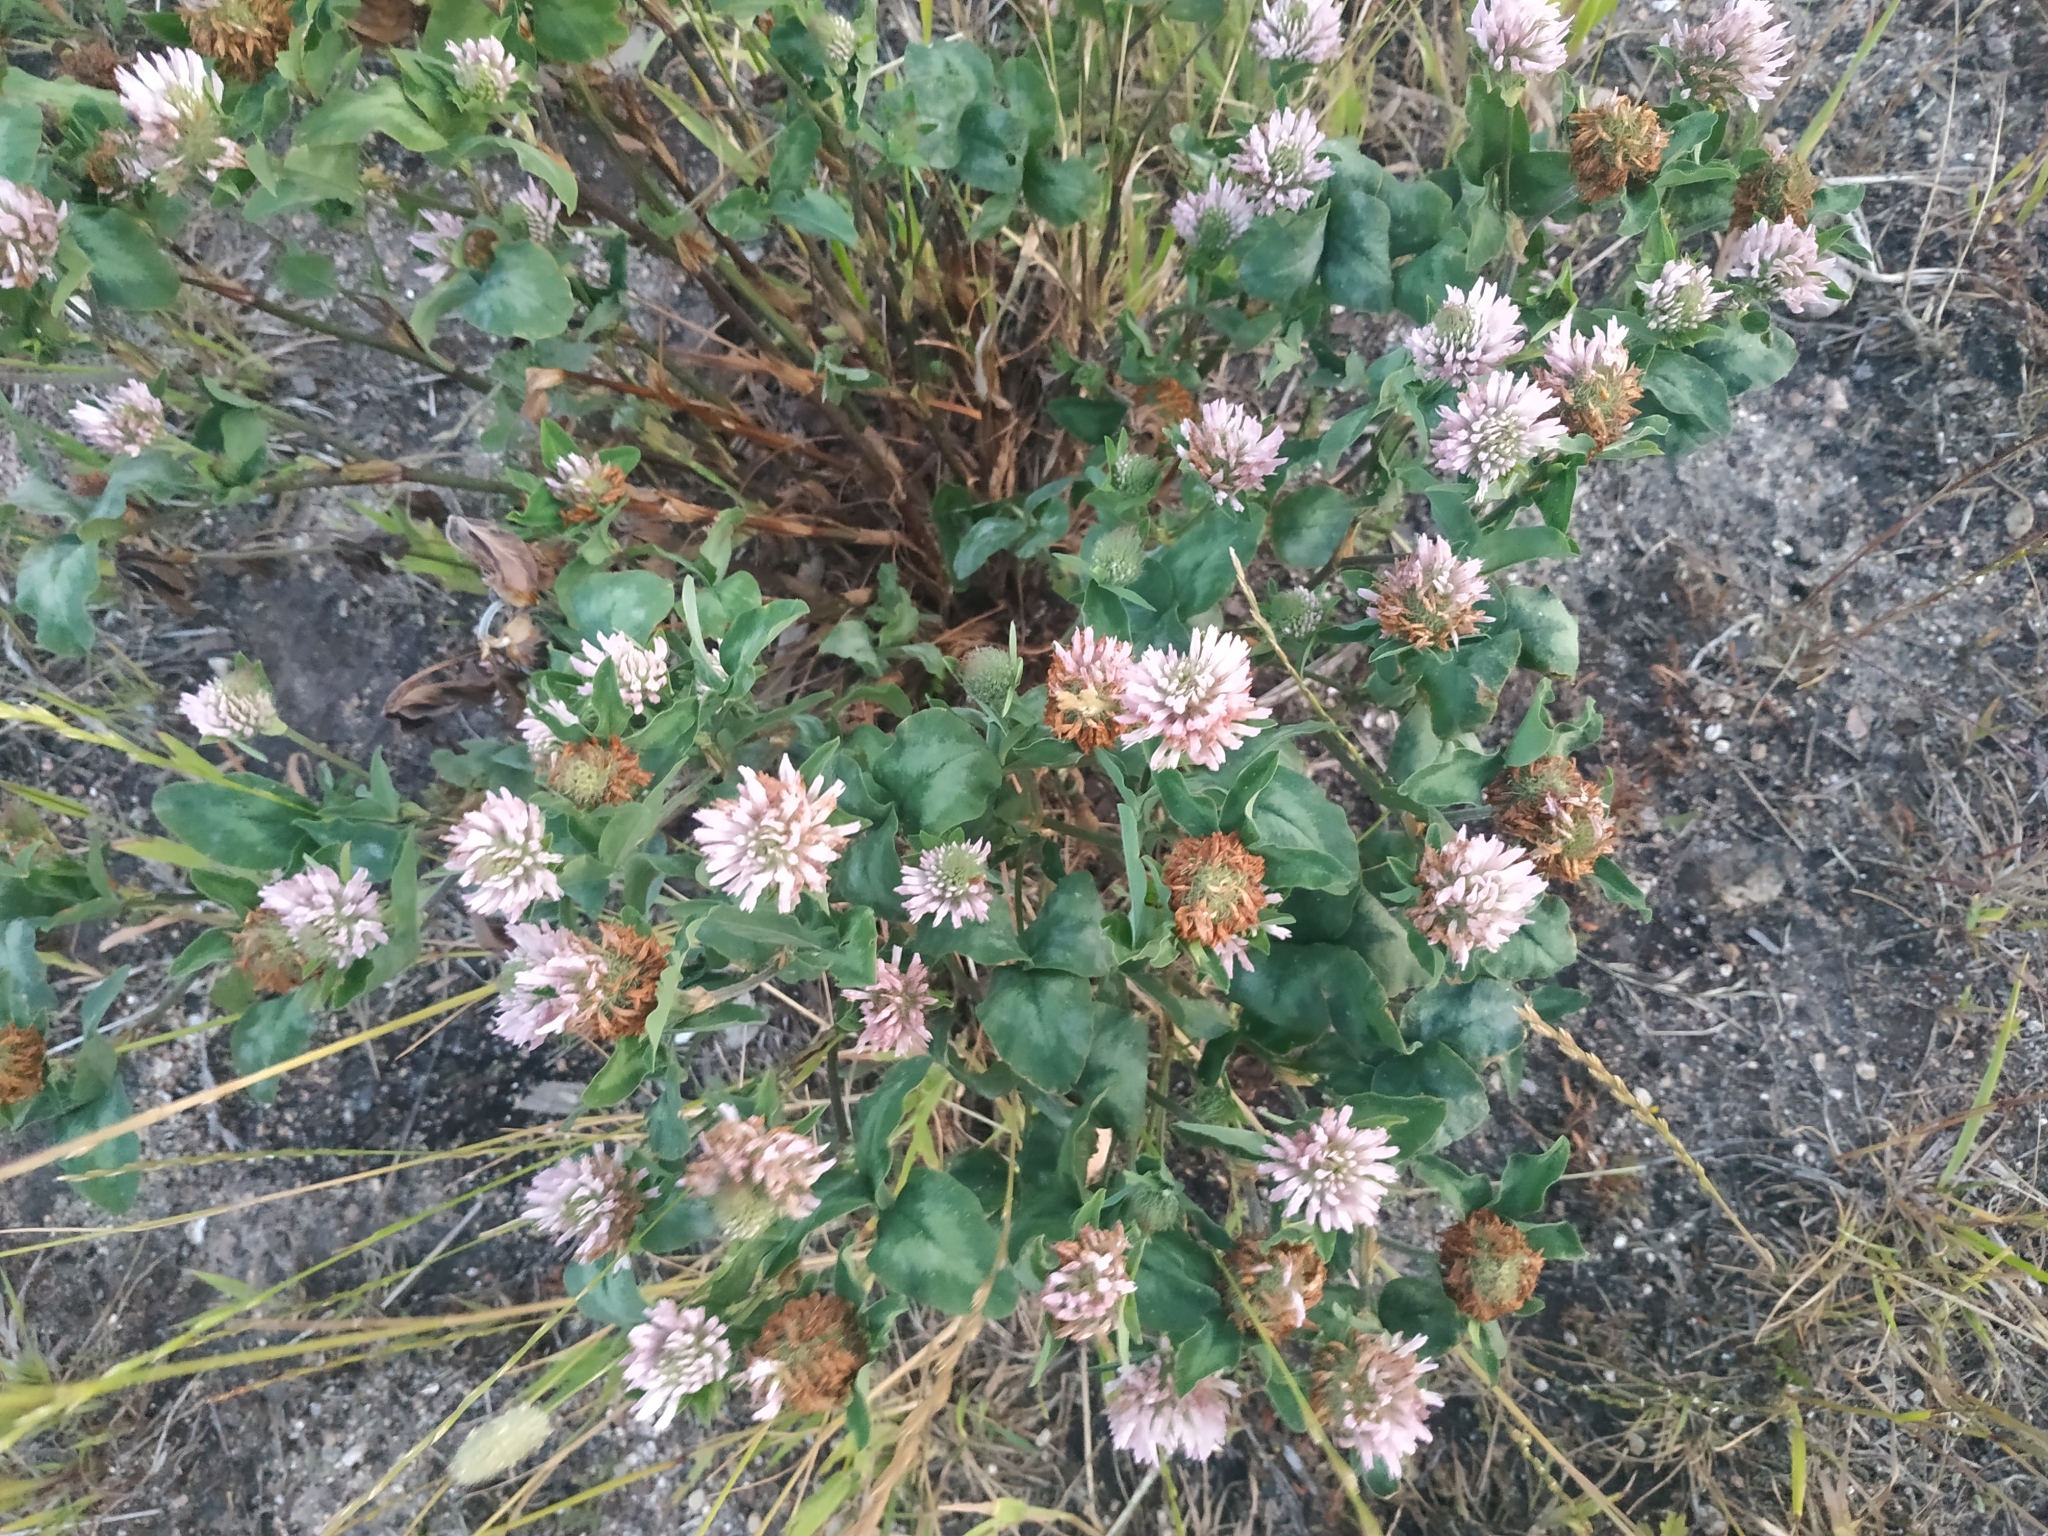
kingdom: Plantae
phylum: Tracheophyta
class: Magnoliopsida
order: Fabales
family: Fabaceae
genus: Trifolium
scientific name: Trifolium pratense
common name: Red clover
